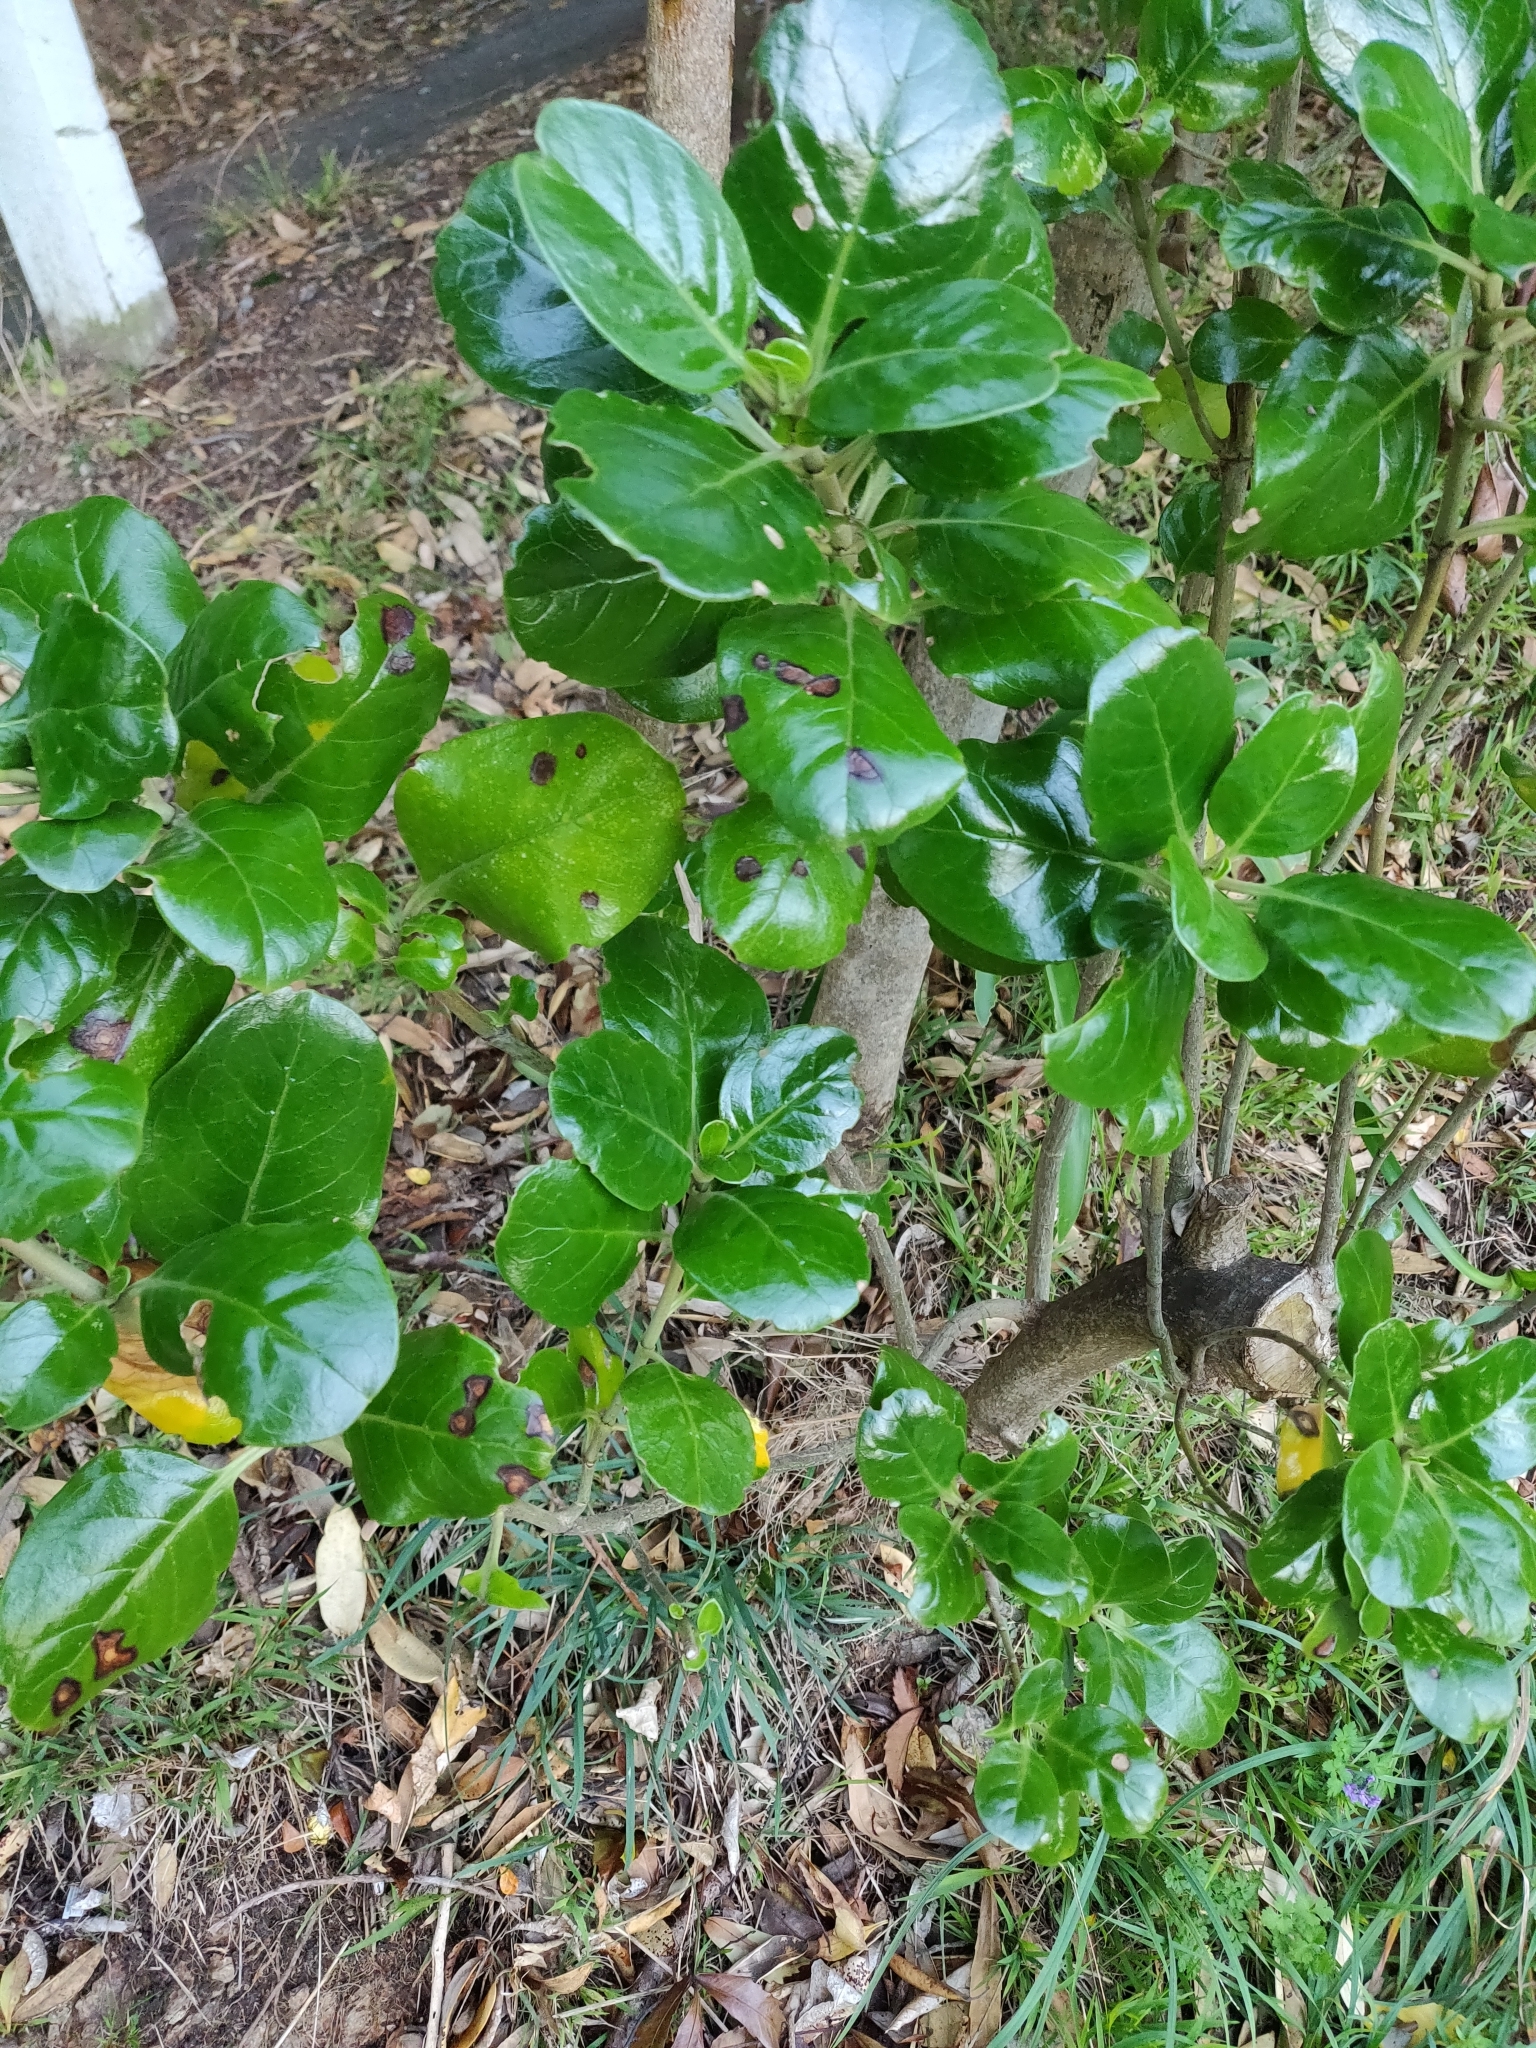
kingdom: Plantae
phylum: Tracheophyta
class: Magnoliopsida
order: Gentianales
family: Rubiaceae
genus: Coprosma
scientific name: Coprosma repens
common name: Tree bedstraw
